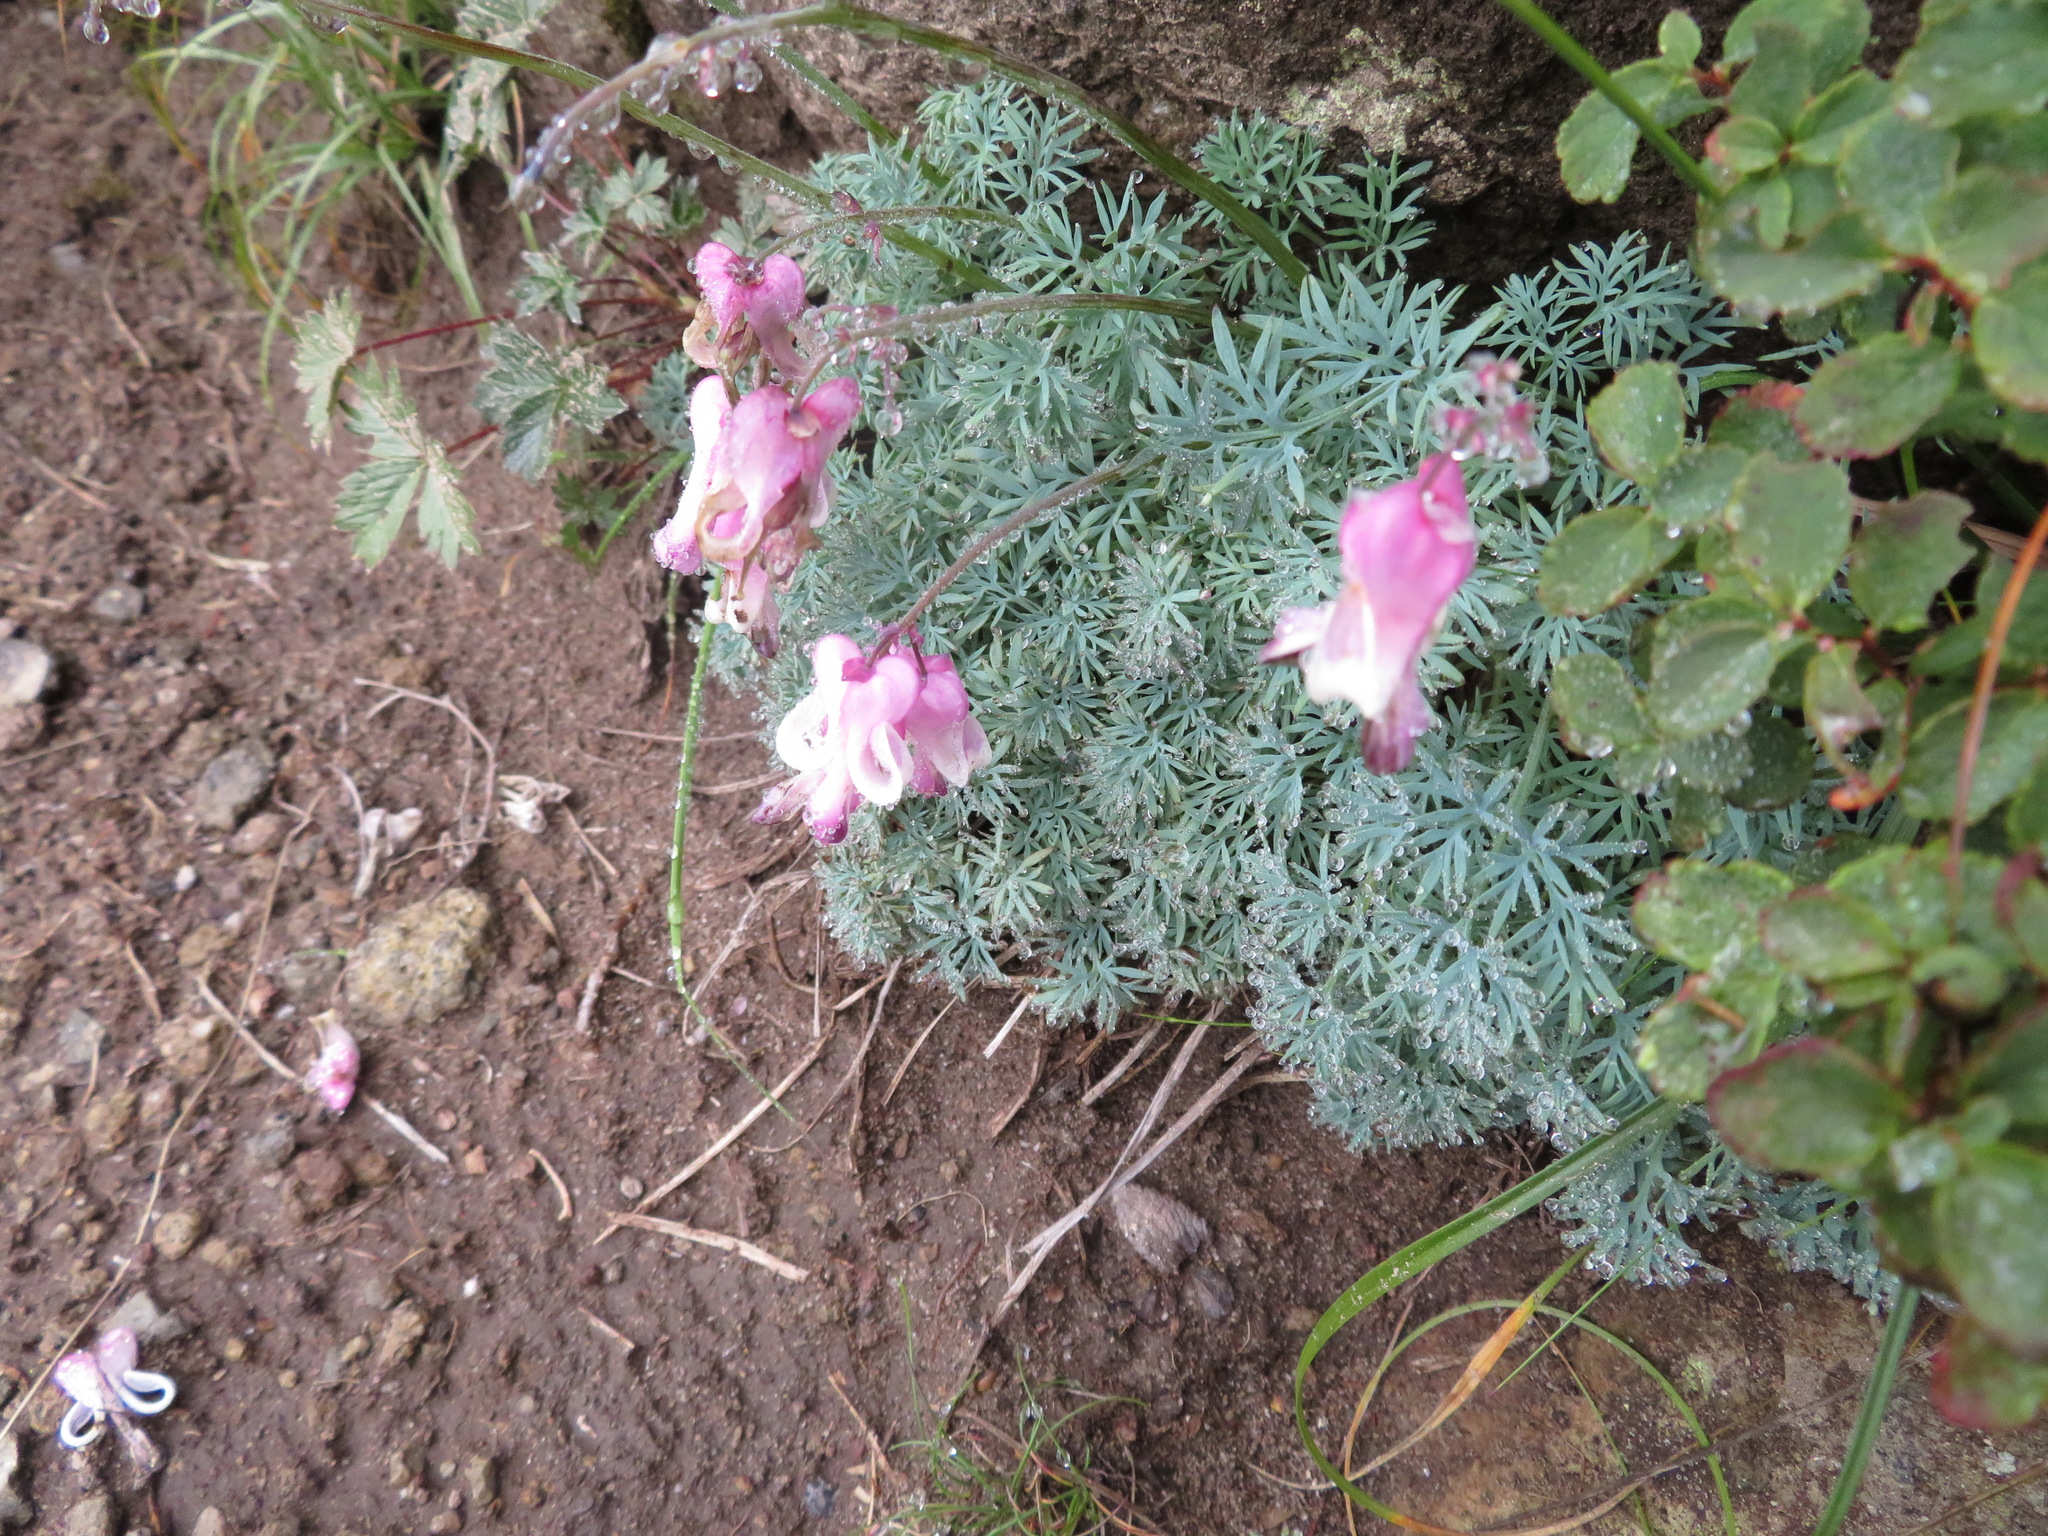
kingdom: Plantae
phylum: Tracheophyta
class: Magnoliopsida
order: Ranunculales
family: Papaveraceae
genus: Dicentra
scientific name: Dicentra peregrina
